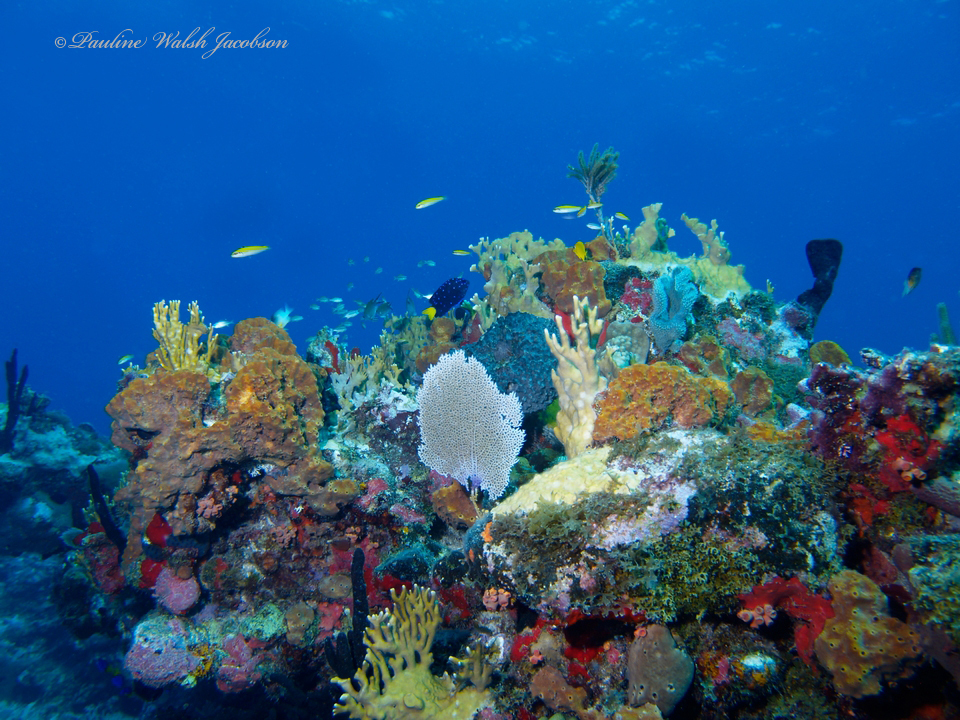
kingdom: Animalia
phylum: Chordata
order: Perciformes
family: Pomacentridae
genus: Microspathodon
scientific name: Microspathodon chrysurus
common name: Yellowtail damselfish
